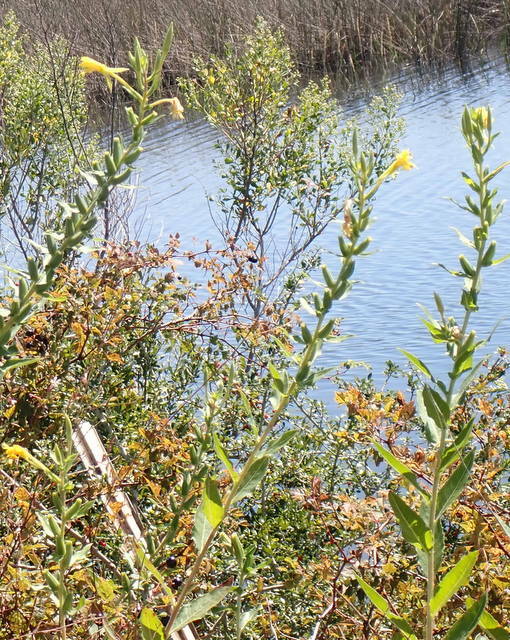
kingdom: Plantae
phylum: Tracheophyta
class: Magnoliopsida
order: Myrtales
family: Onagraceae
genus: Oenothera
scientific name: Oenothera biennis
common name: Common evening-primrose
